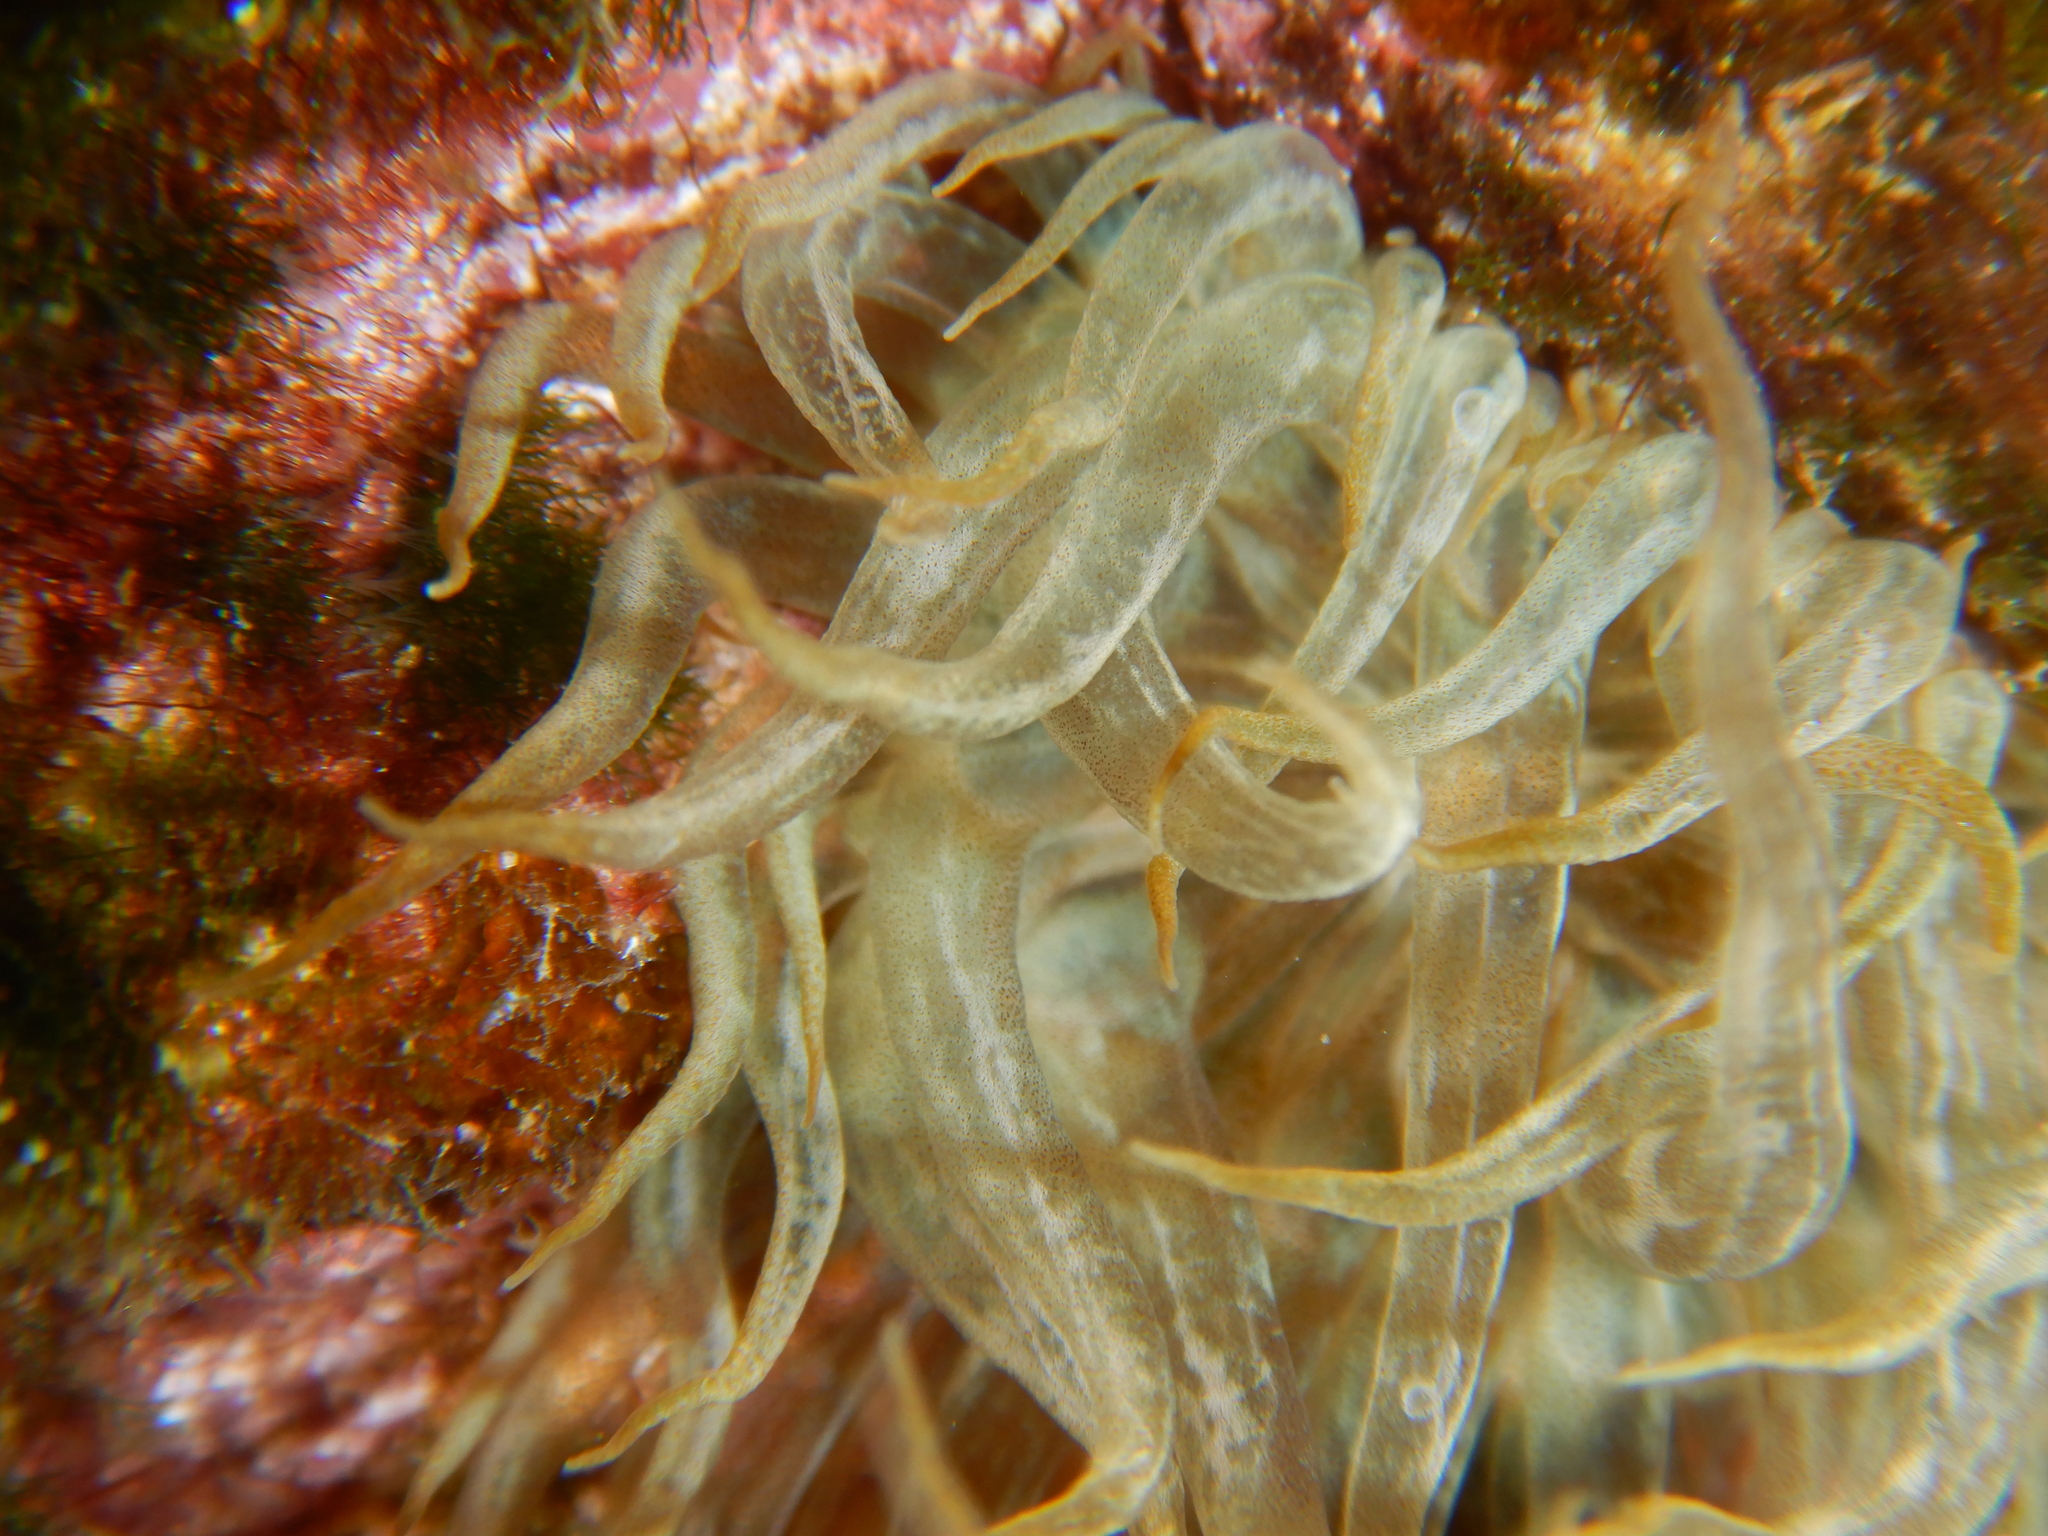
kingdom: Animalia
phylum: Cnidaria
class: Anthozoa
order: Actiniaria
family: Aiptasiidae
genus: Aiptasia
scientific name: Aiptasia mutabilis
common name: Trumpet anemone
